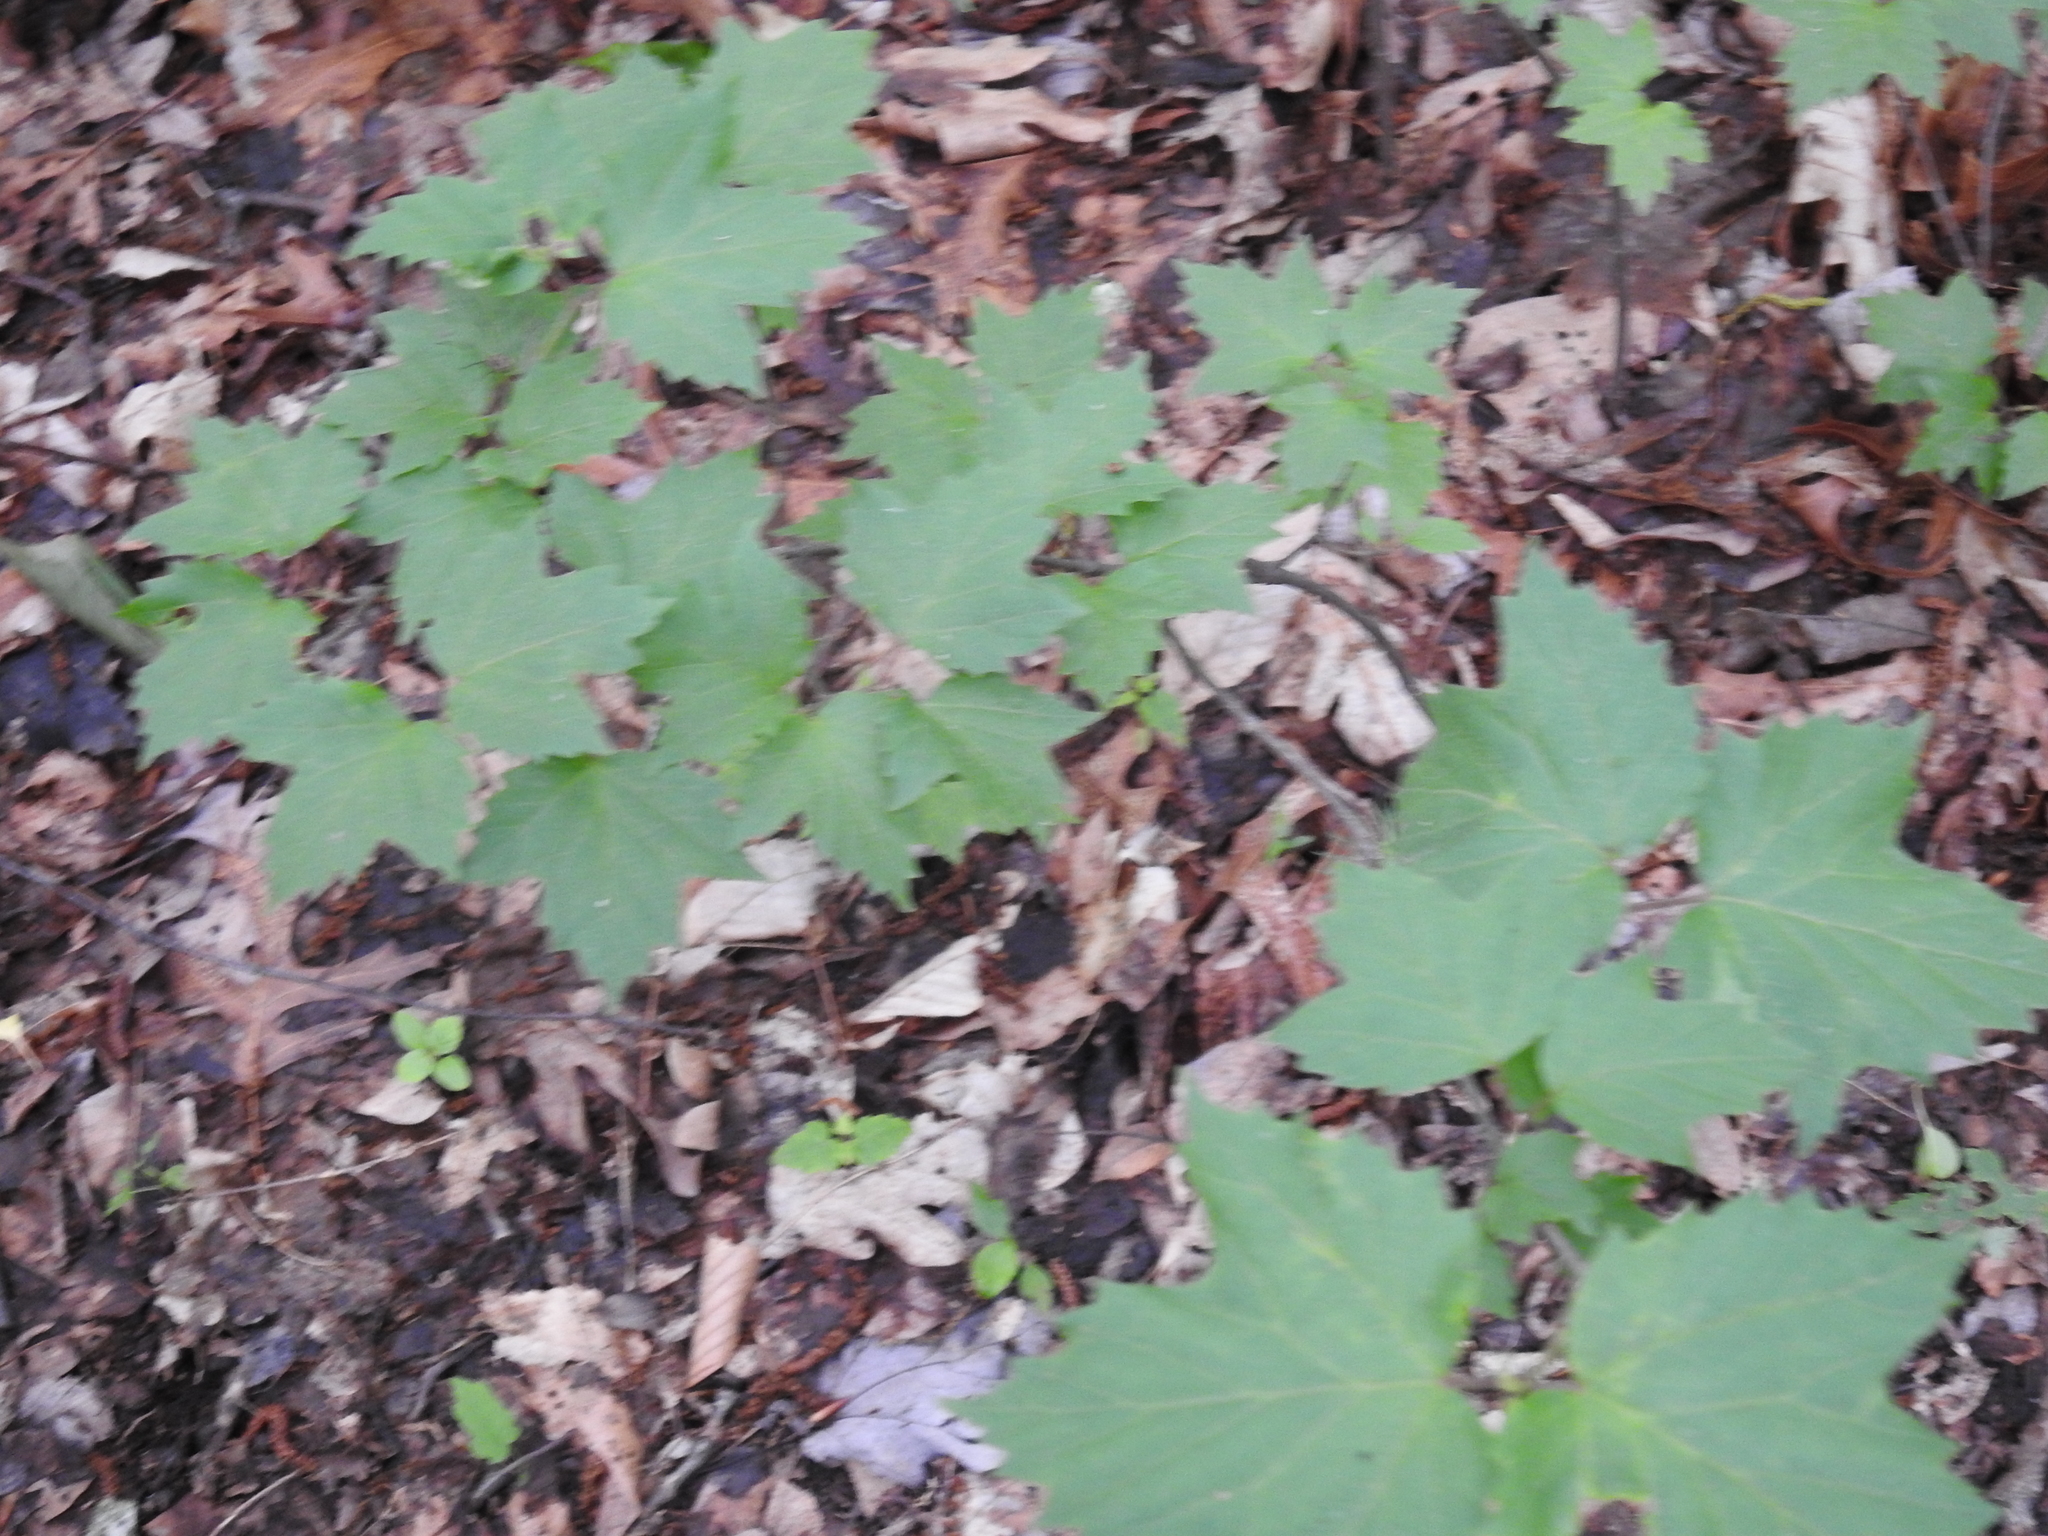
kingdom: Plantae
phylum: Tracheophyta
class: Magnoliopsida
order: Dipsacales
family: Viburnaceae
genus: Viburnum
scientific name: Viburnum acerifolium
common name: Dockmackie
